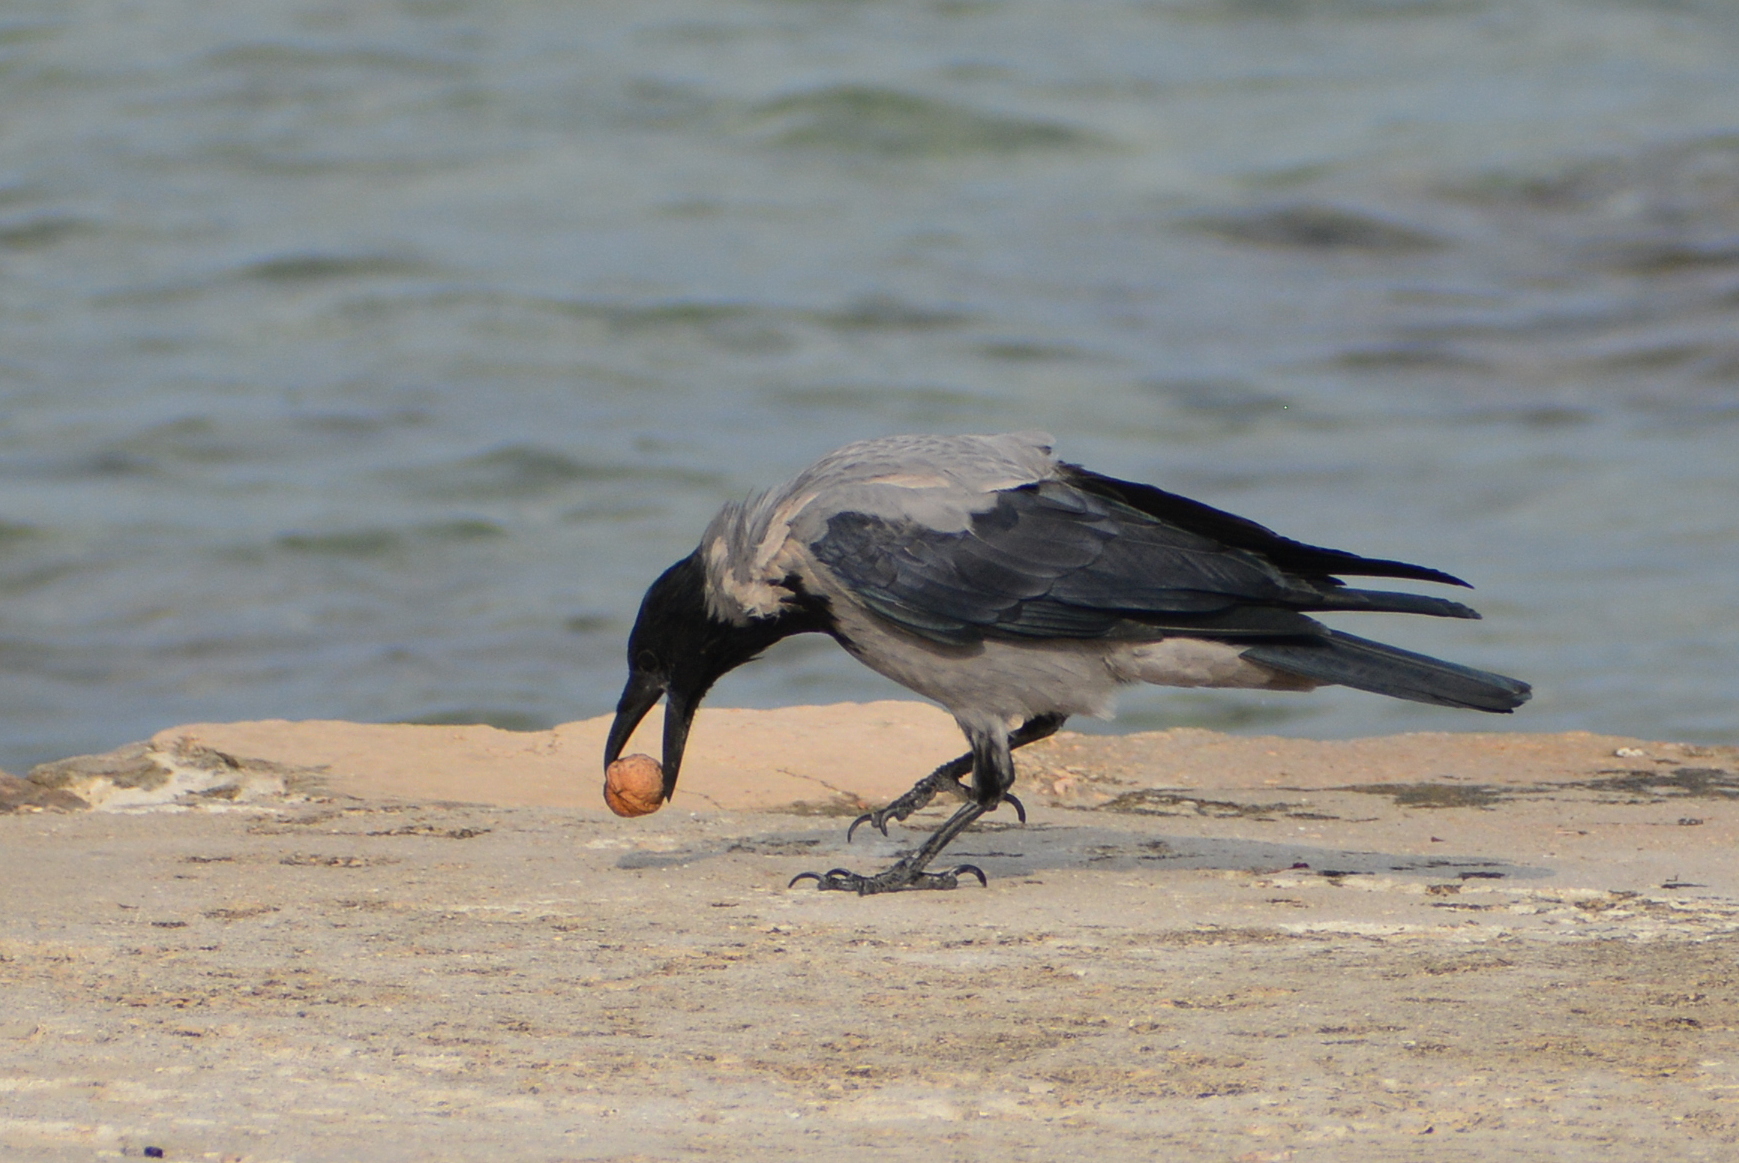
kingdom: Animalia
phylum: Chordata
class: Aves
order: Passeriformes
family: Corvidae
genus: Corvus
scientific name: Corvus cornix
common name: Hooded crow
